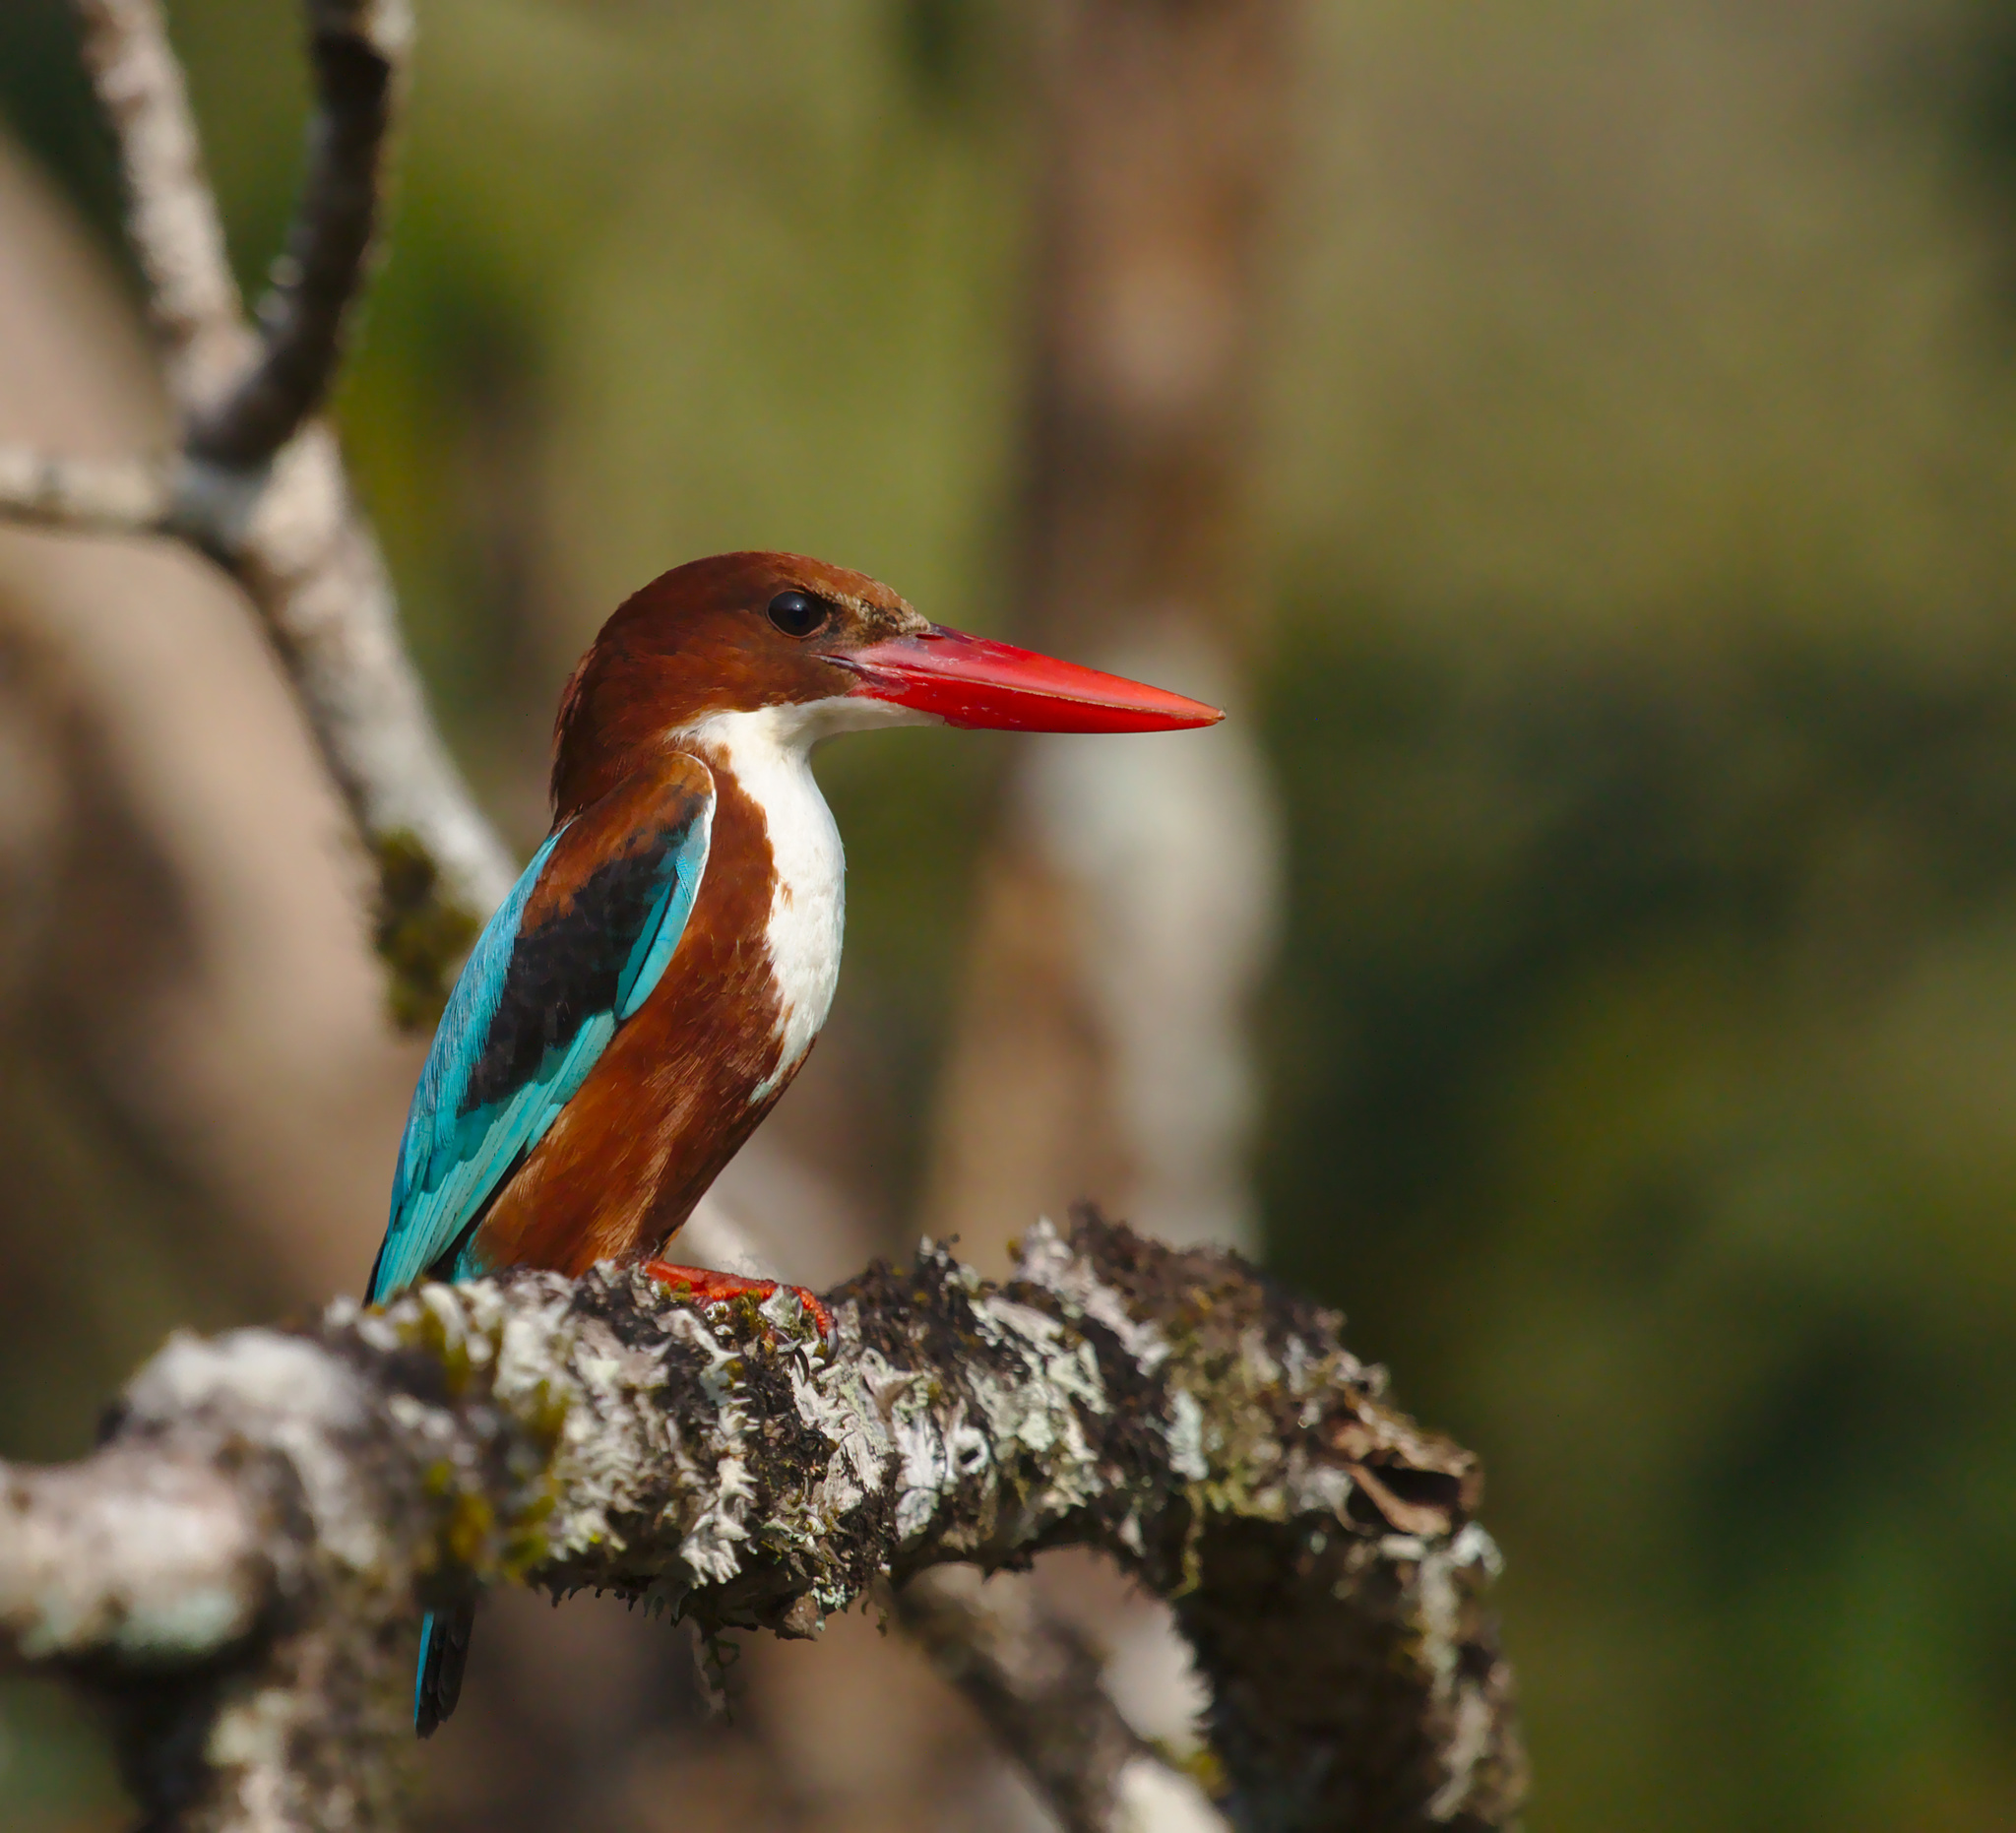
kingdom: Animalia
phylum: Chordata
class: Aves
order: Coraciiformes
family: Alcedinidae
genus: Halcyon
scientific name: Halcyon smyrnensis
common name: White-throated kingfisher
